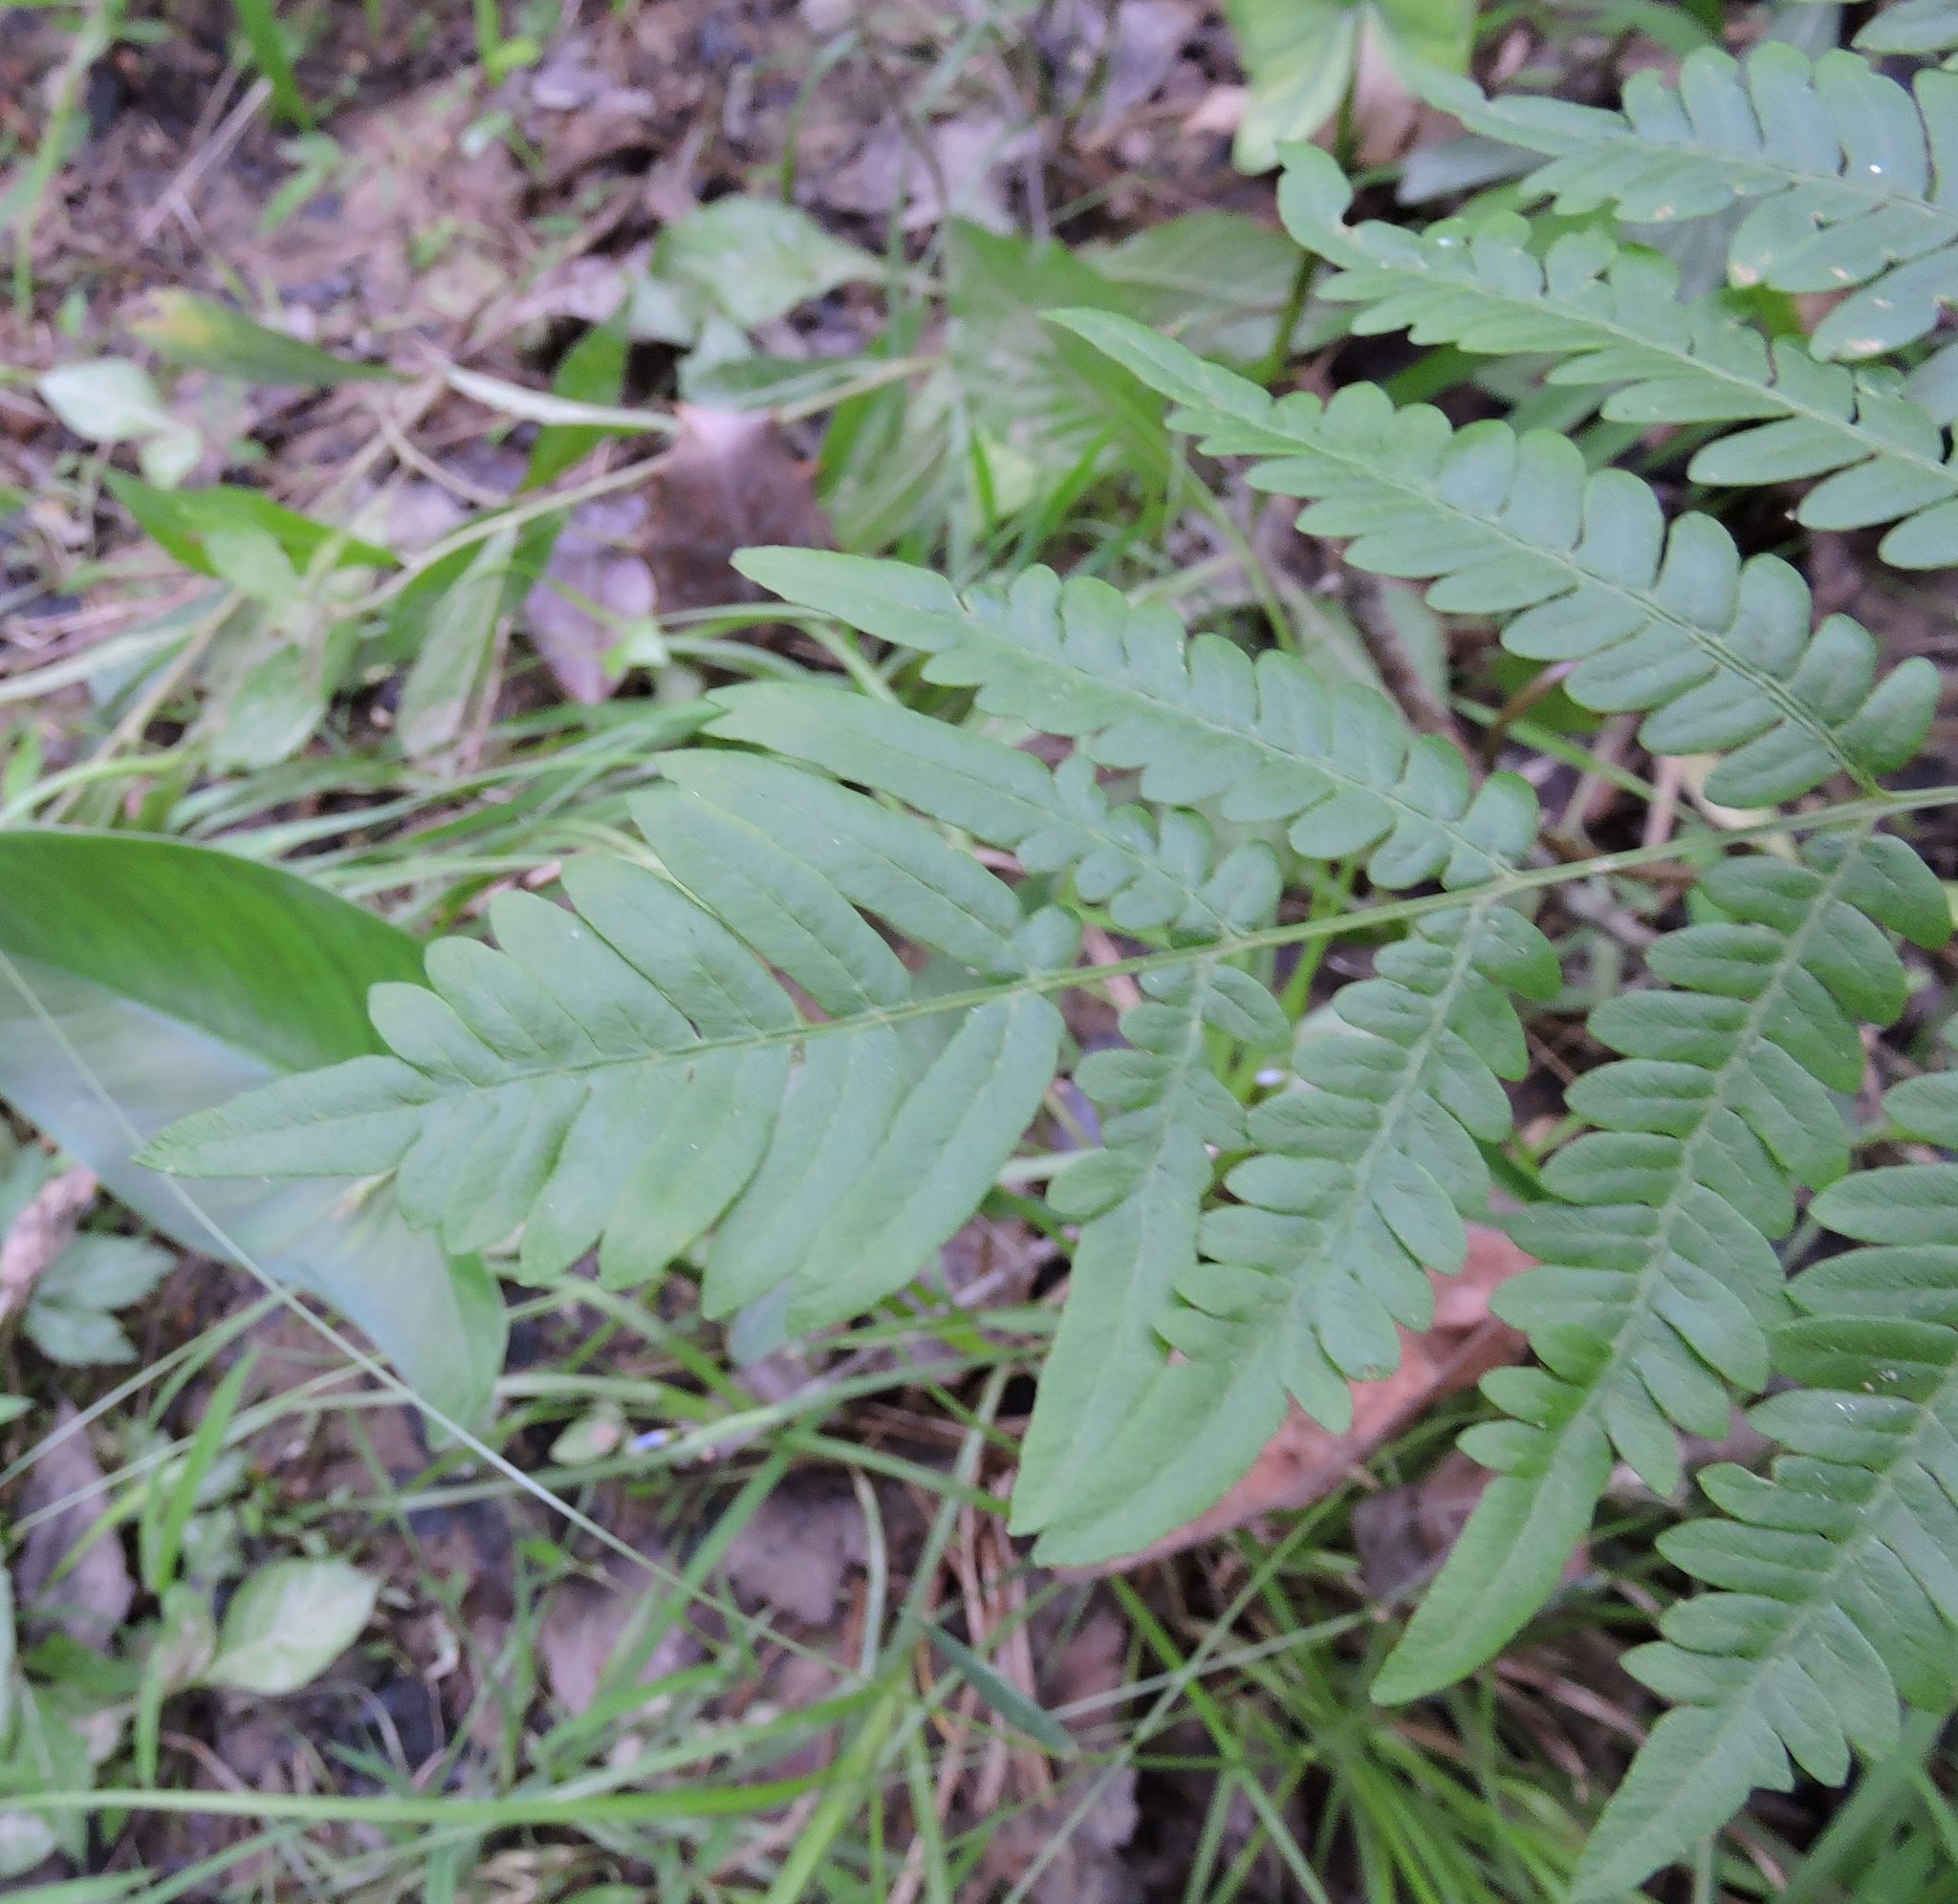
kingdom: Plantae
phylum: Tracheophyta
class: Polypodiopsida
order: Polypodiales
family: Dennstaedtiaceae
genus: Pteridium
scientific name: Pteridium aquilinum
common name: Bracken
